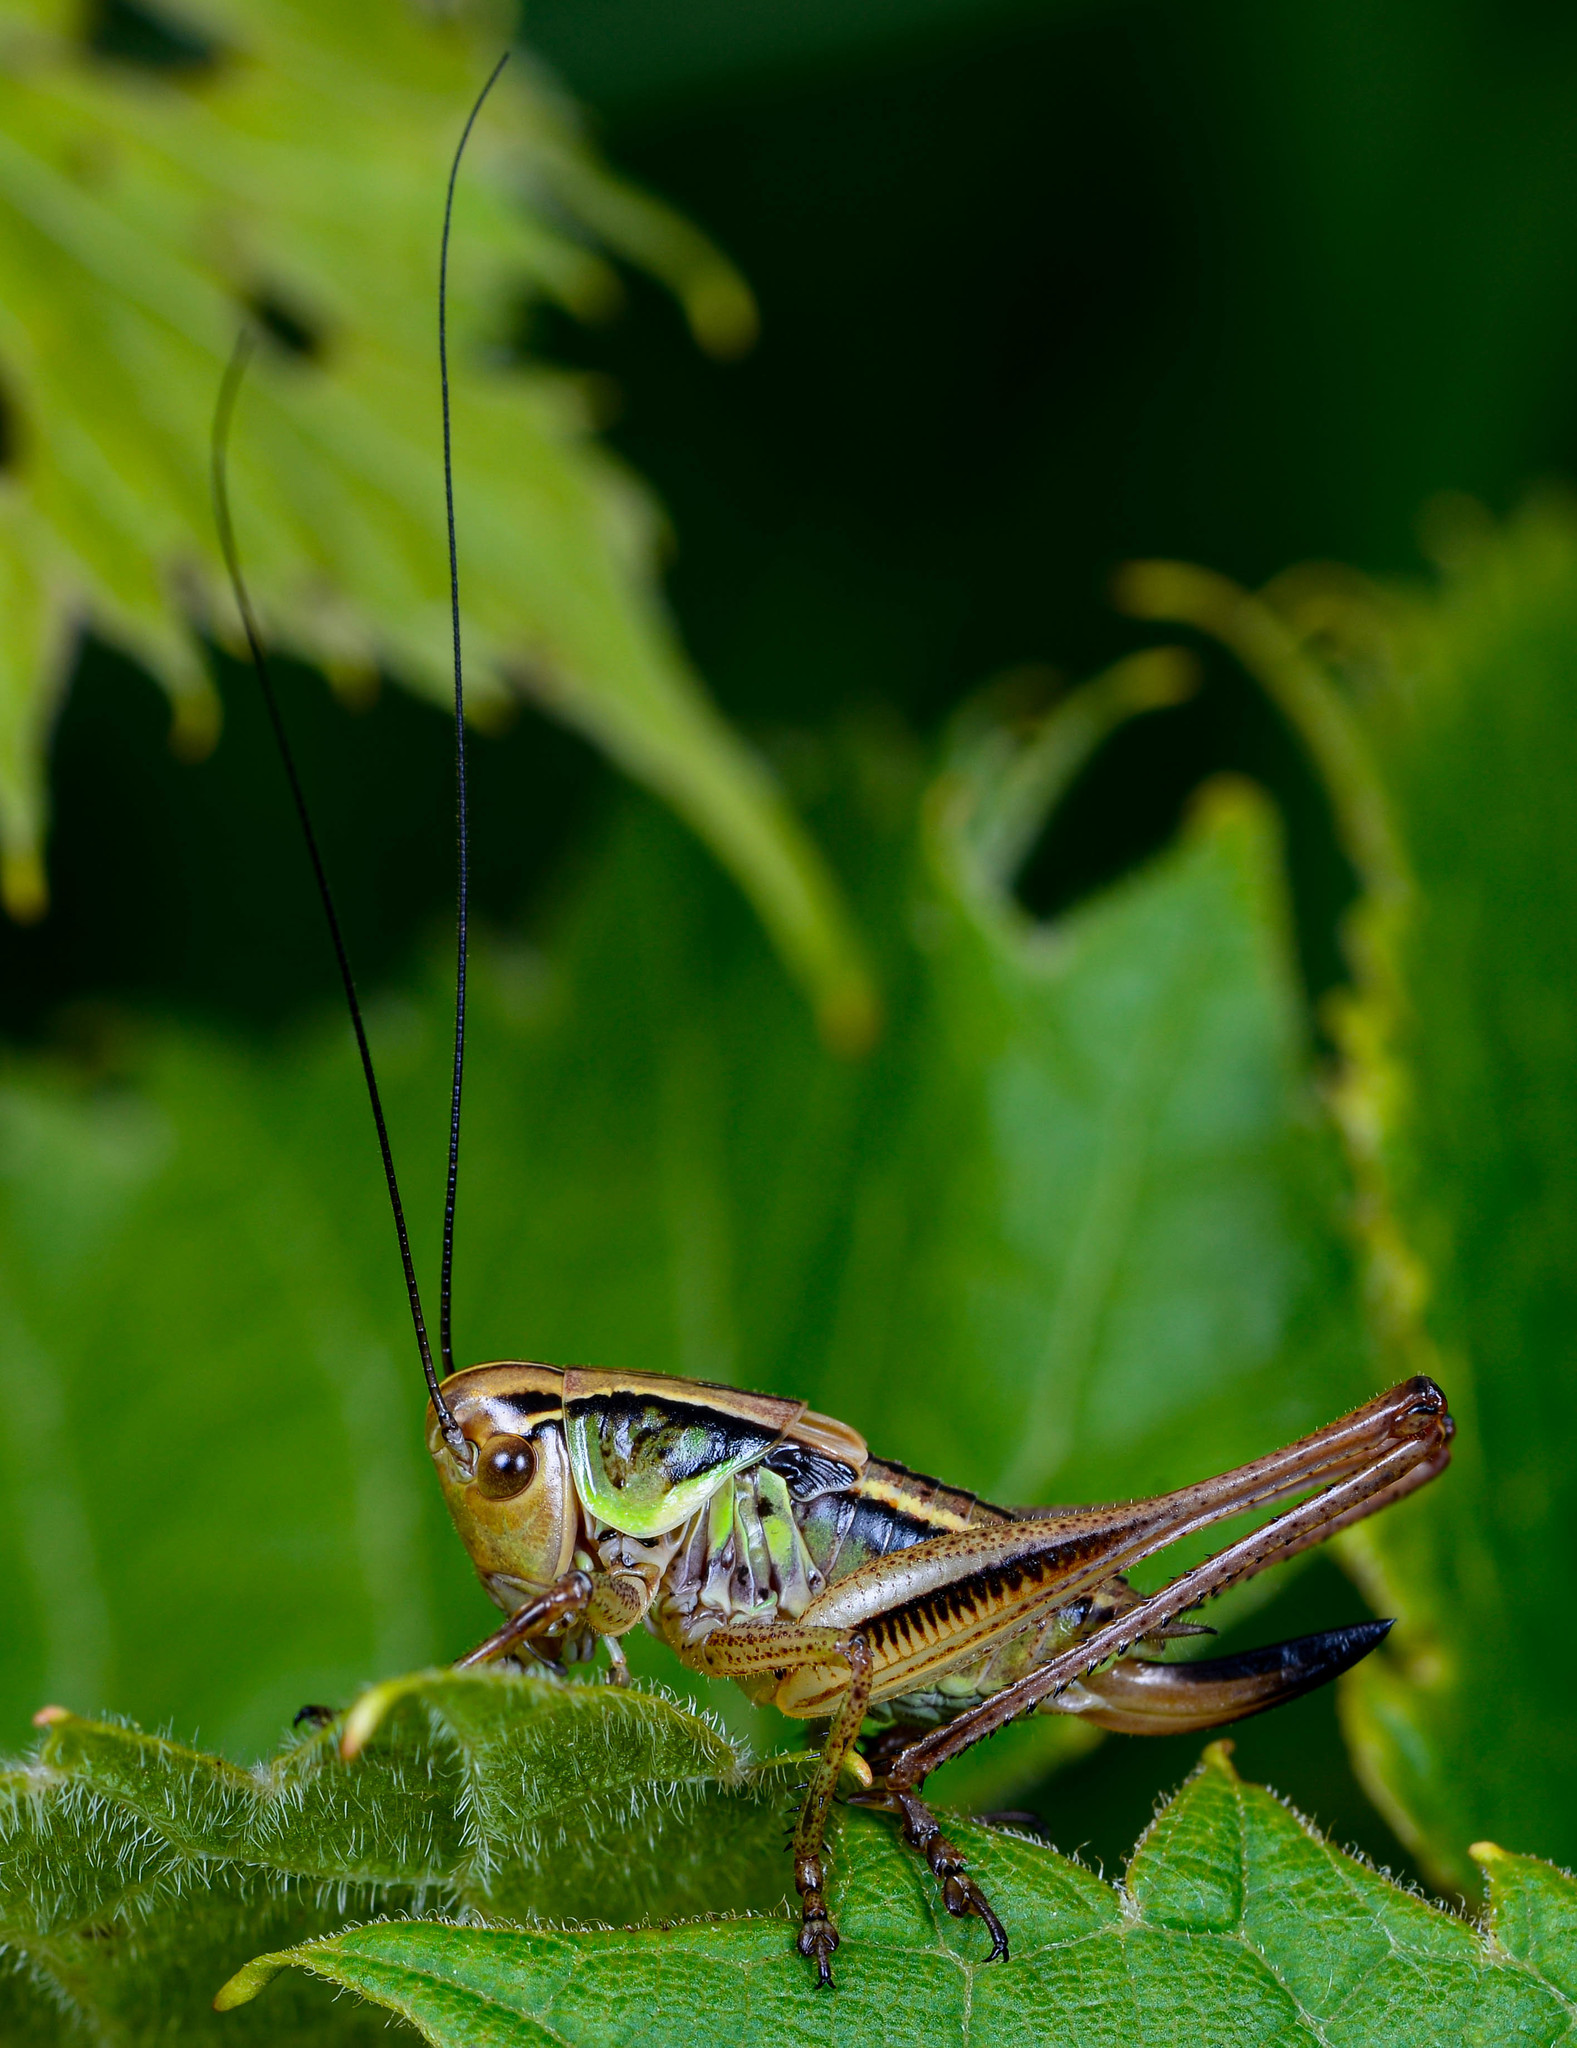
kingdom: Animalia
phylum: Arthropoda
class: Insecta
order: Orthoptera
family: Tettigoniidae
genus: Roeseliana
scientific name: Roeseliana roeselii
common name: Roesel's bush cricket
